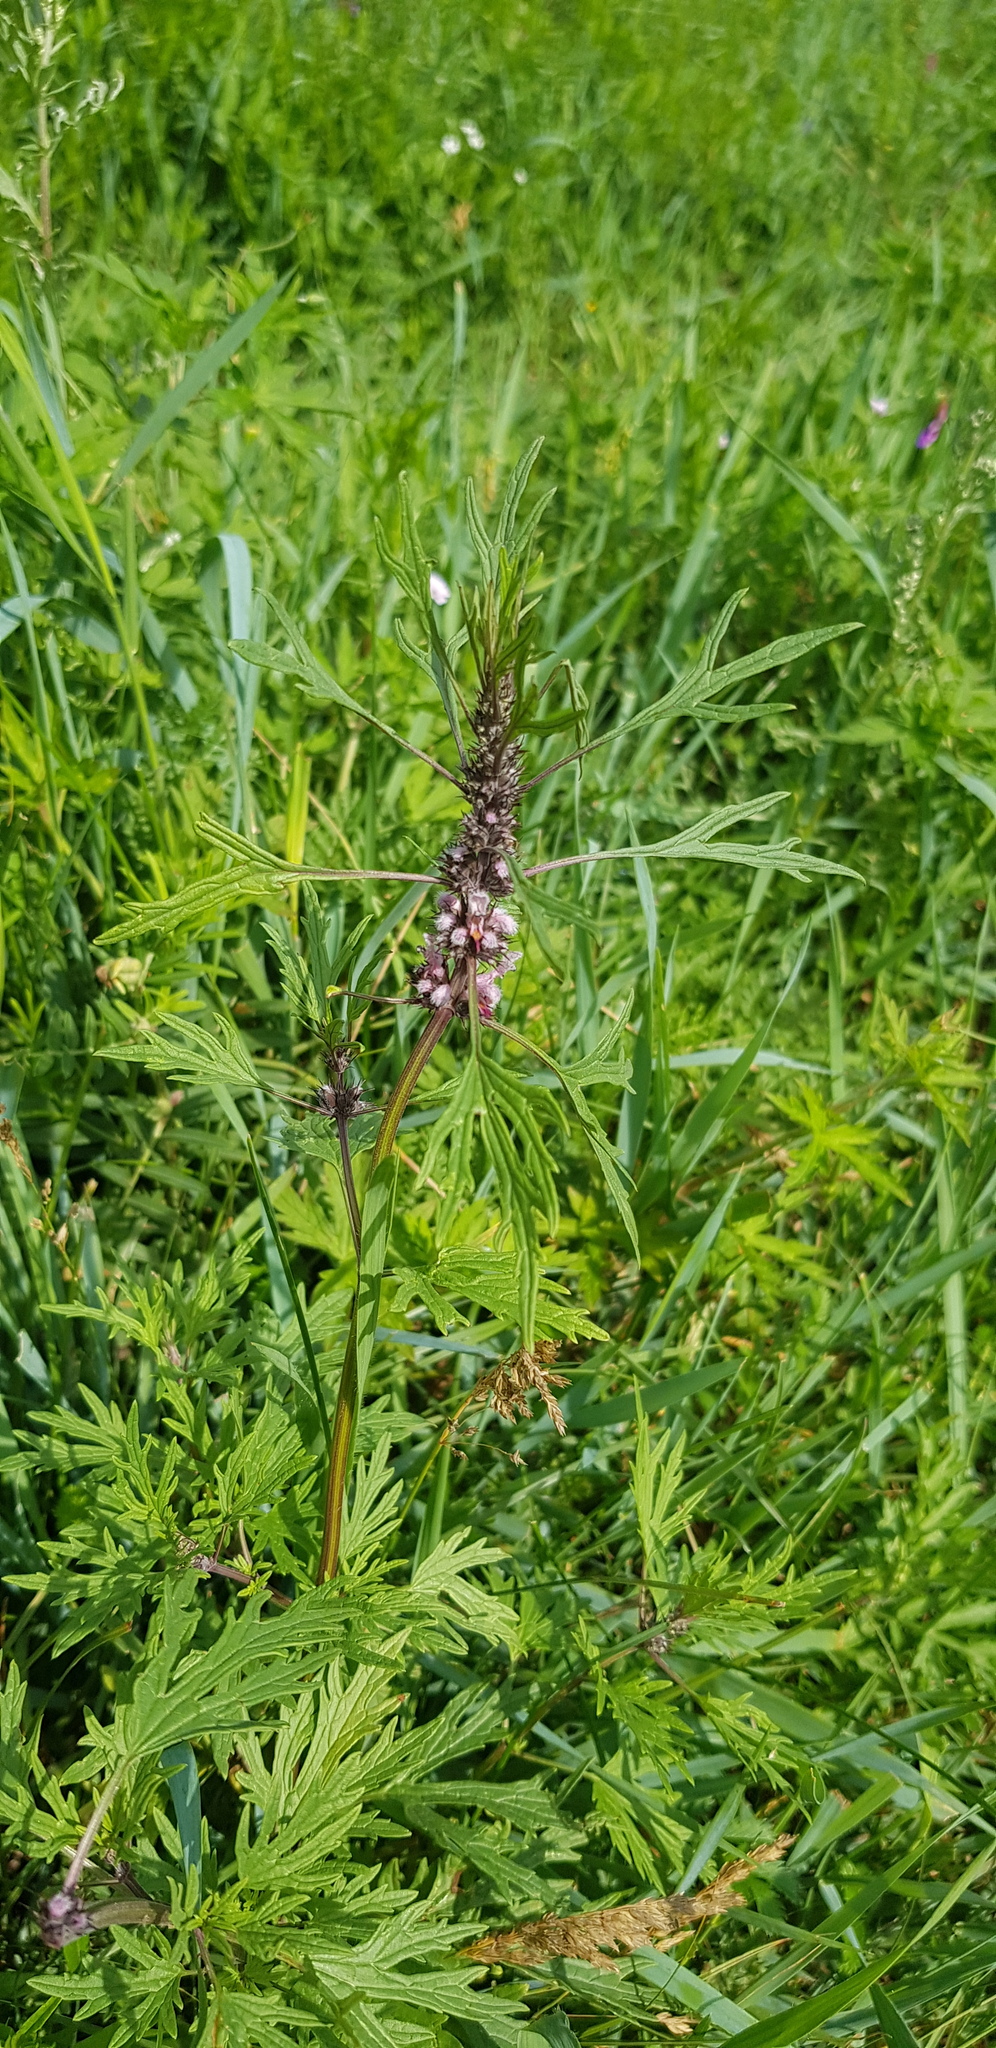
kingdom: Plantae
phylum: Tracheophyta
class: Magnoliopsida
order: Lamiales
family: Lamiaceae
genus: Leonurus
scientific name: Leonurus deminutus
